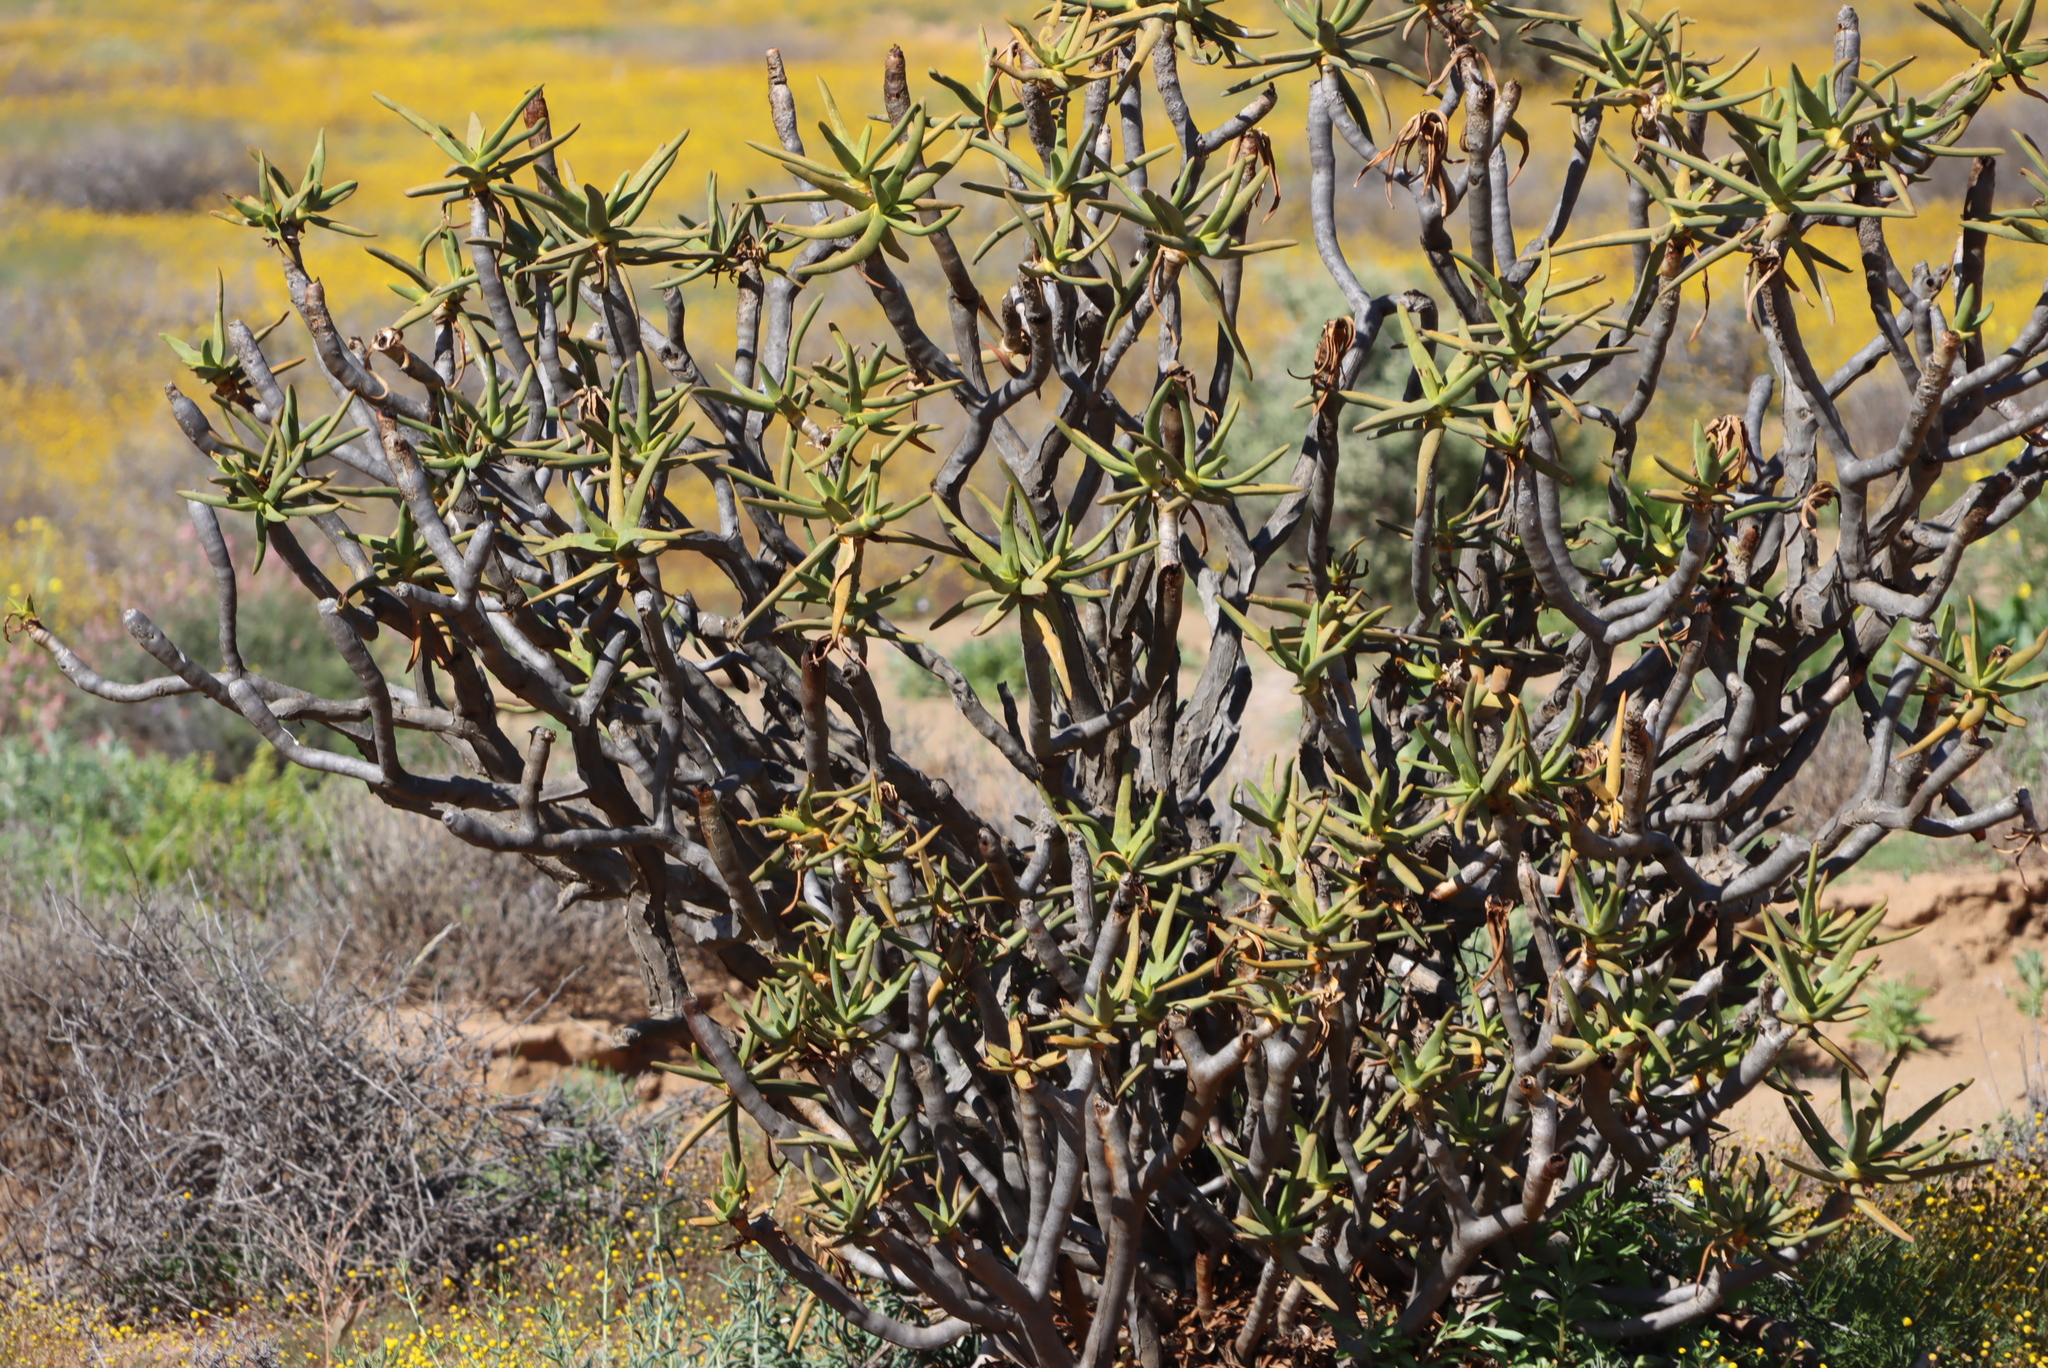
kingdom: Plantae
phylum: Tracheophyta
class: Liliopsida
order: Asparagales
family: Asphodelaceae
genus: Aloidendron
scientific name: Aloidendron ramosissimum
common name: Bush quiver tree
